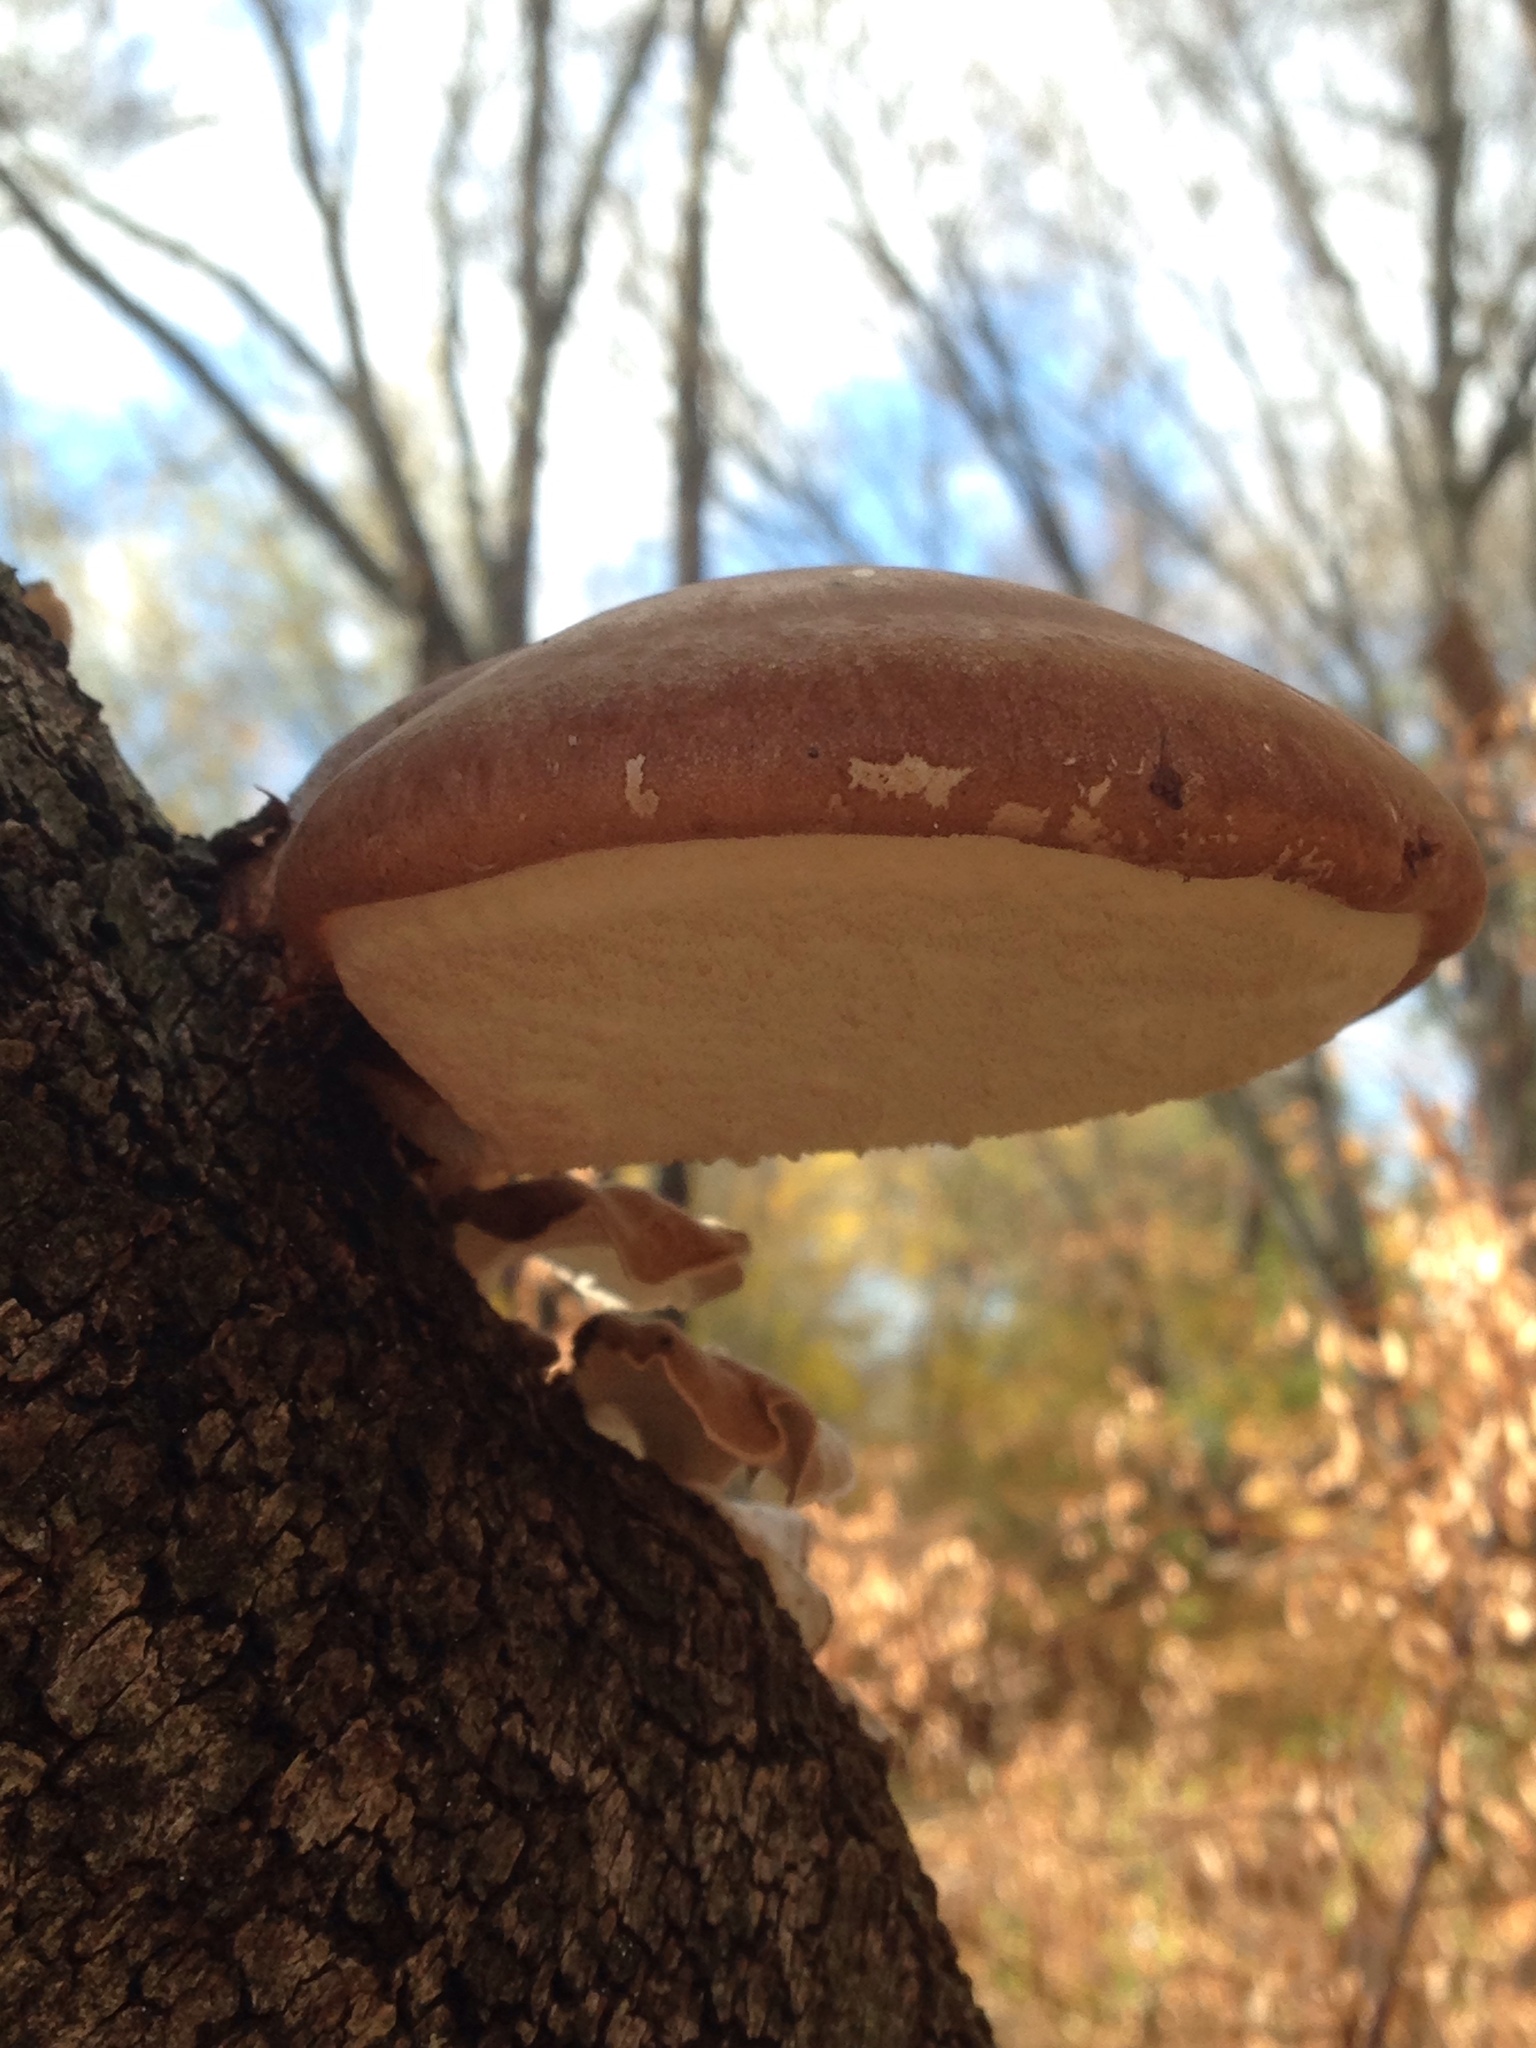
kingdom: Fungi
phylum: Basidiomycota
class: Agaricomycetes
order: Polyporales
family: Fomitopsidaceae
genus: Fomitopsis
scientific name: Fomitopsis betulina
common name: Birch polypore
